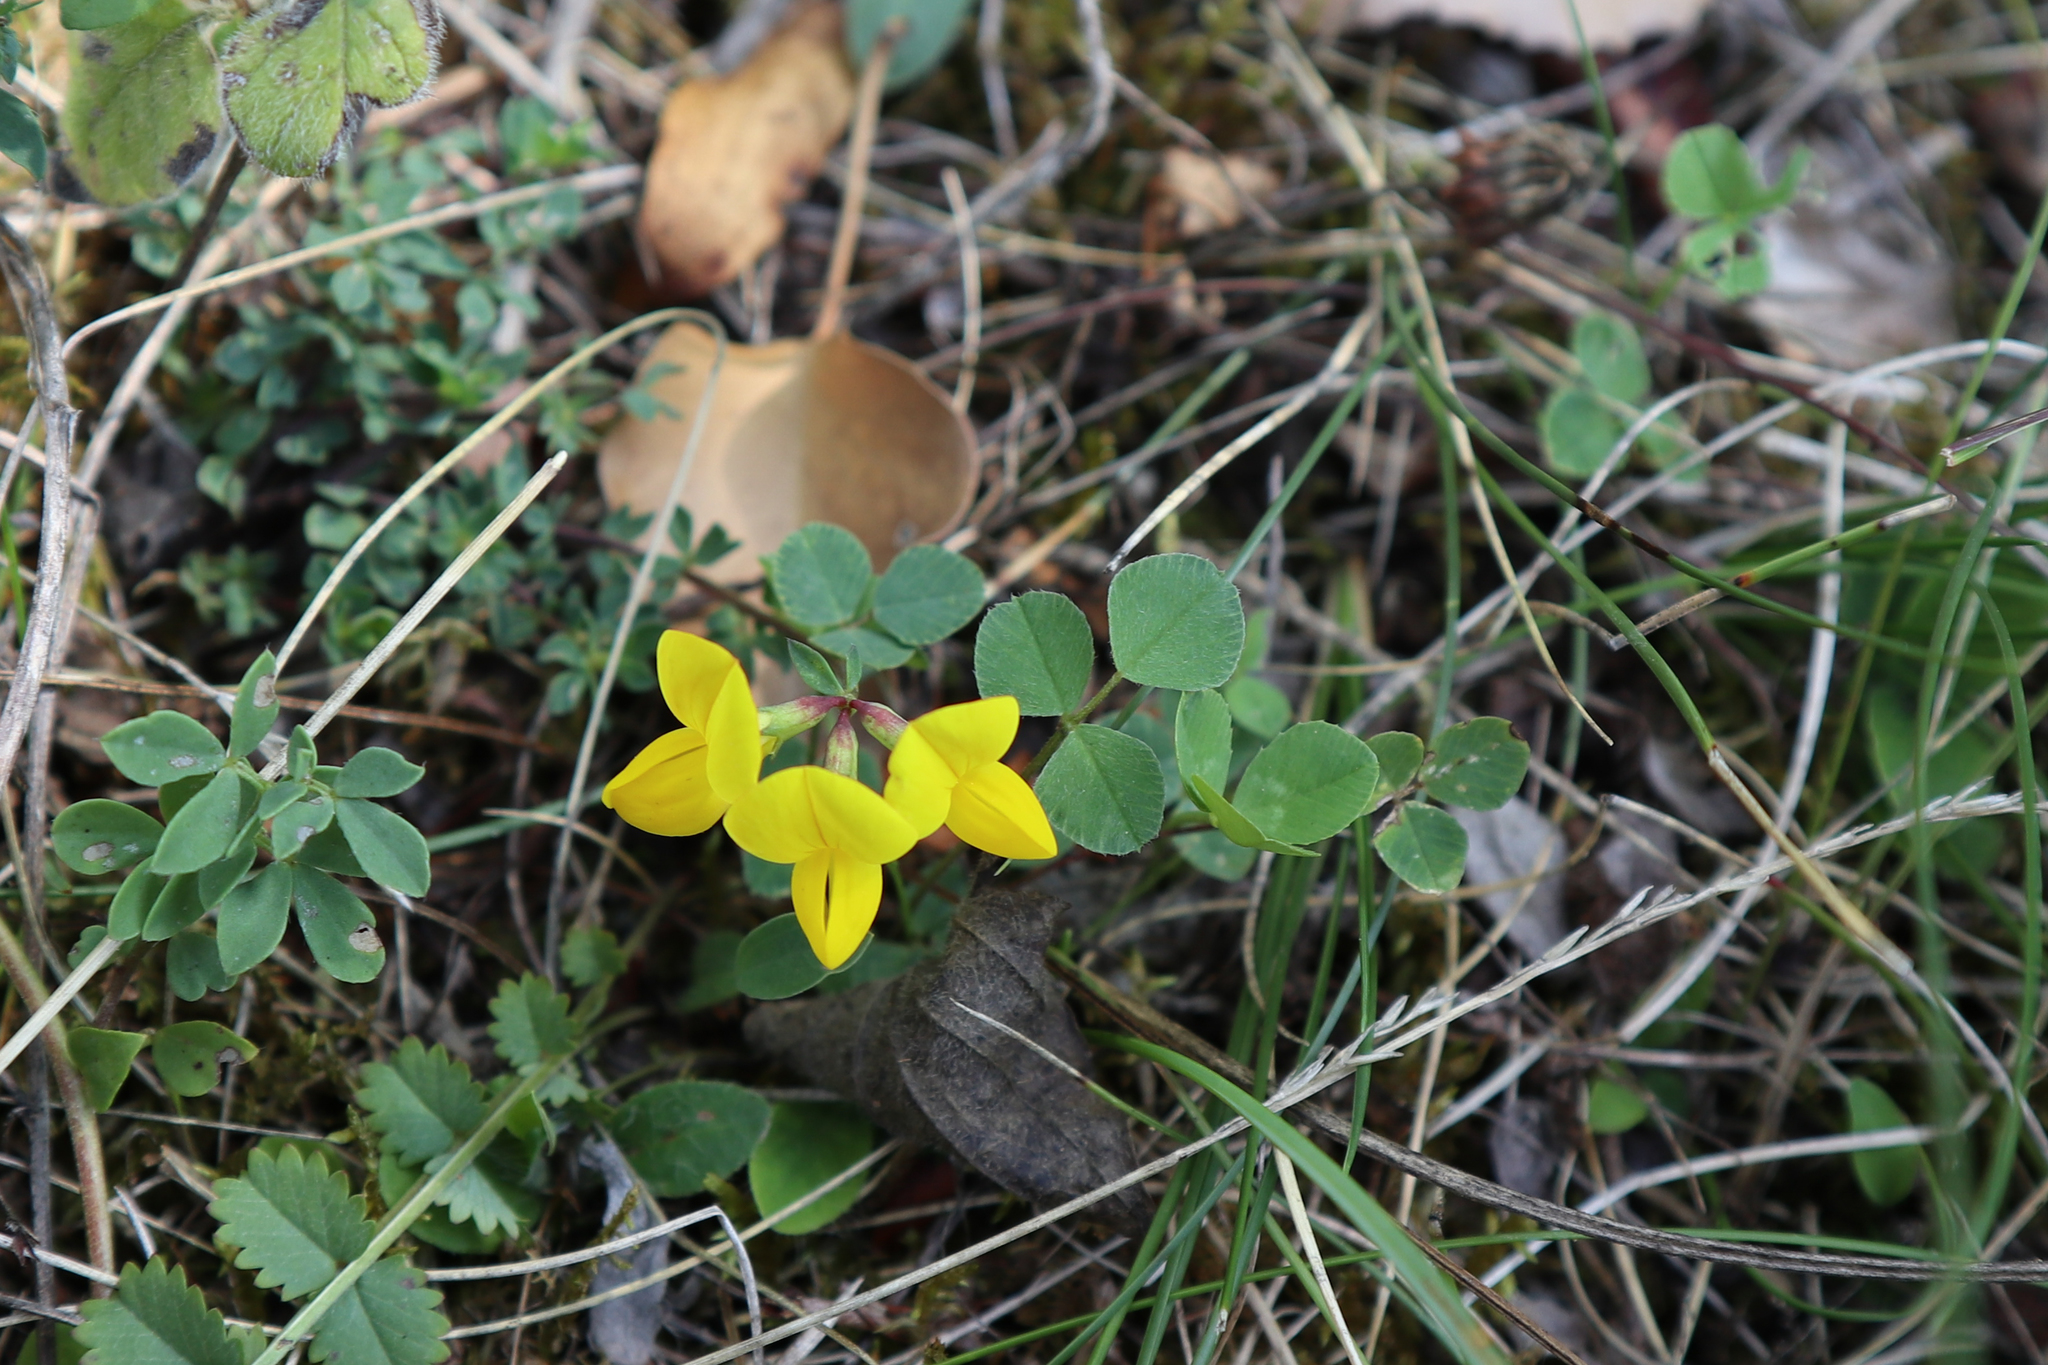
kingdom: Plantae
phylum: Tracheophyta
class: Magnoliopsida
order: Fabales
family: Fabaceae
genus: Lotus
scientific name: Lotus corniculatus
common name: Common bird's-foot-trefoil
